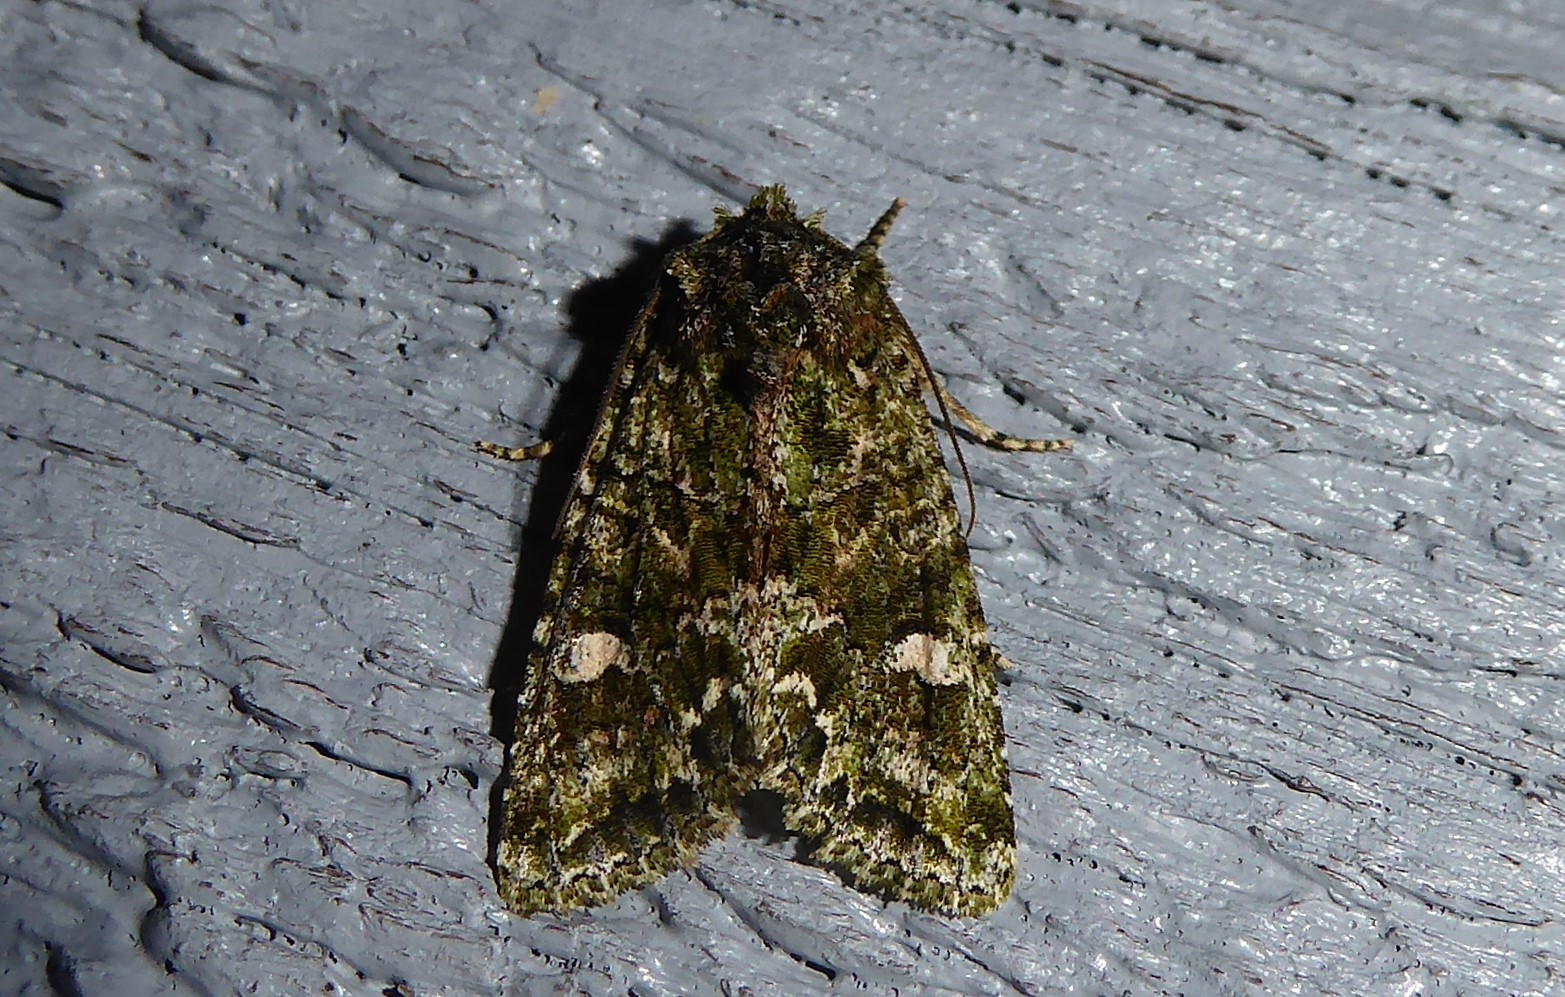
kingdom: Animalia
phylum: Arthropoda
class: Insecta
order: Lepidoptera
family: Noctuidae
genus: Ichneutica
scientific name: Ichneutica
